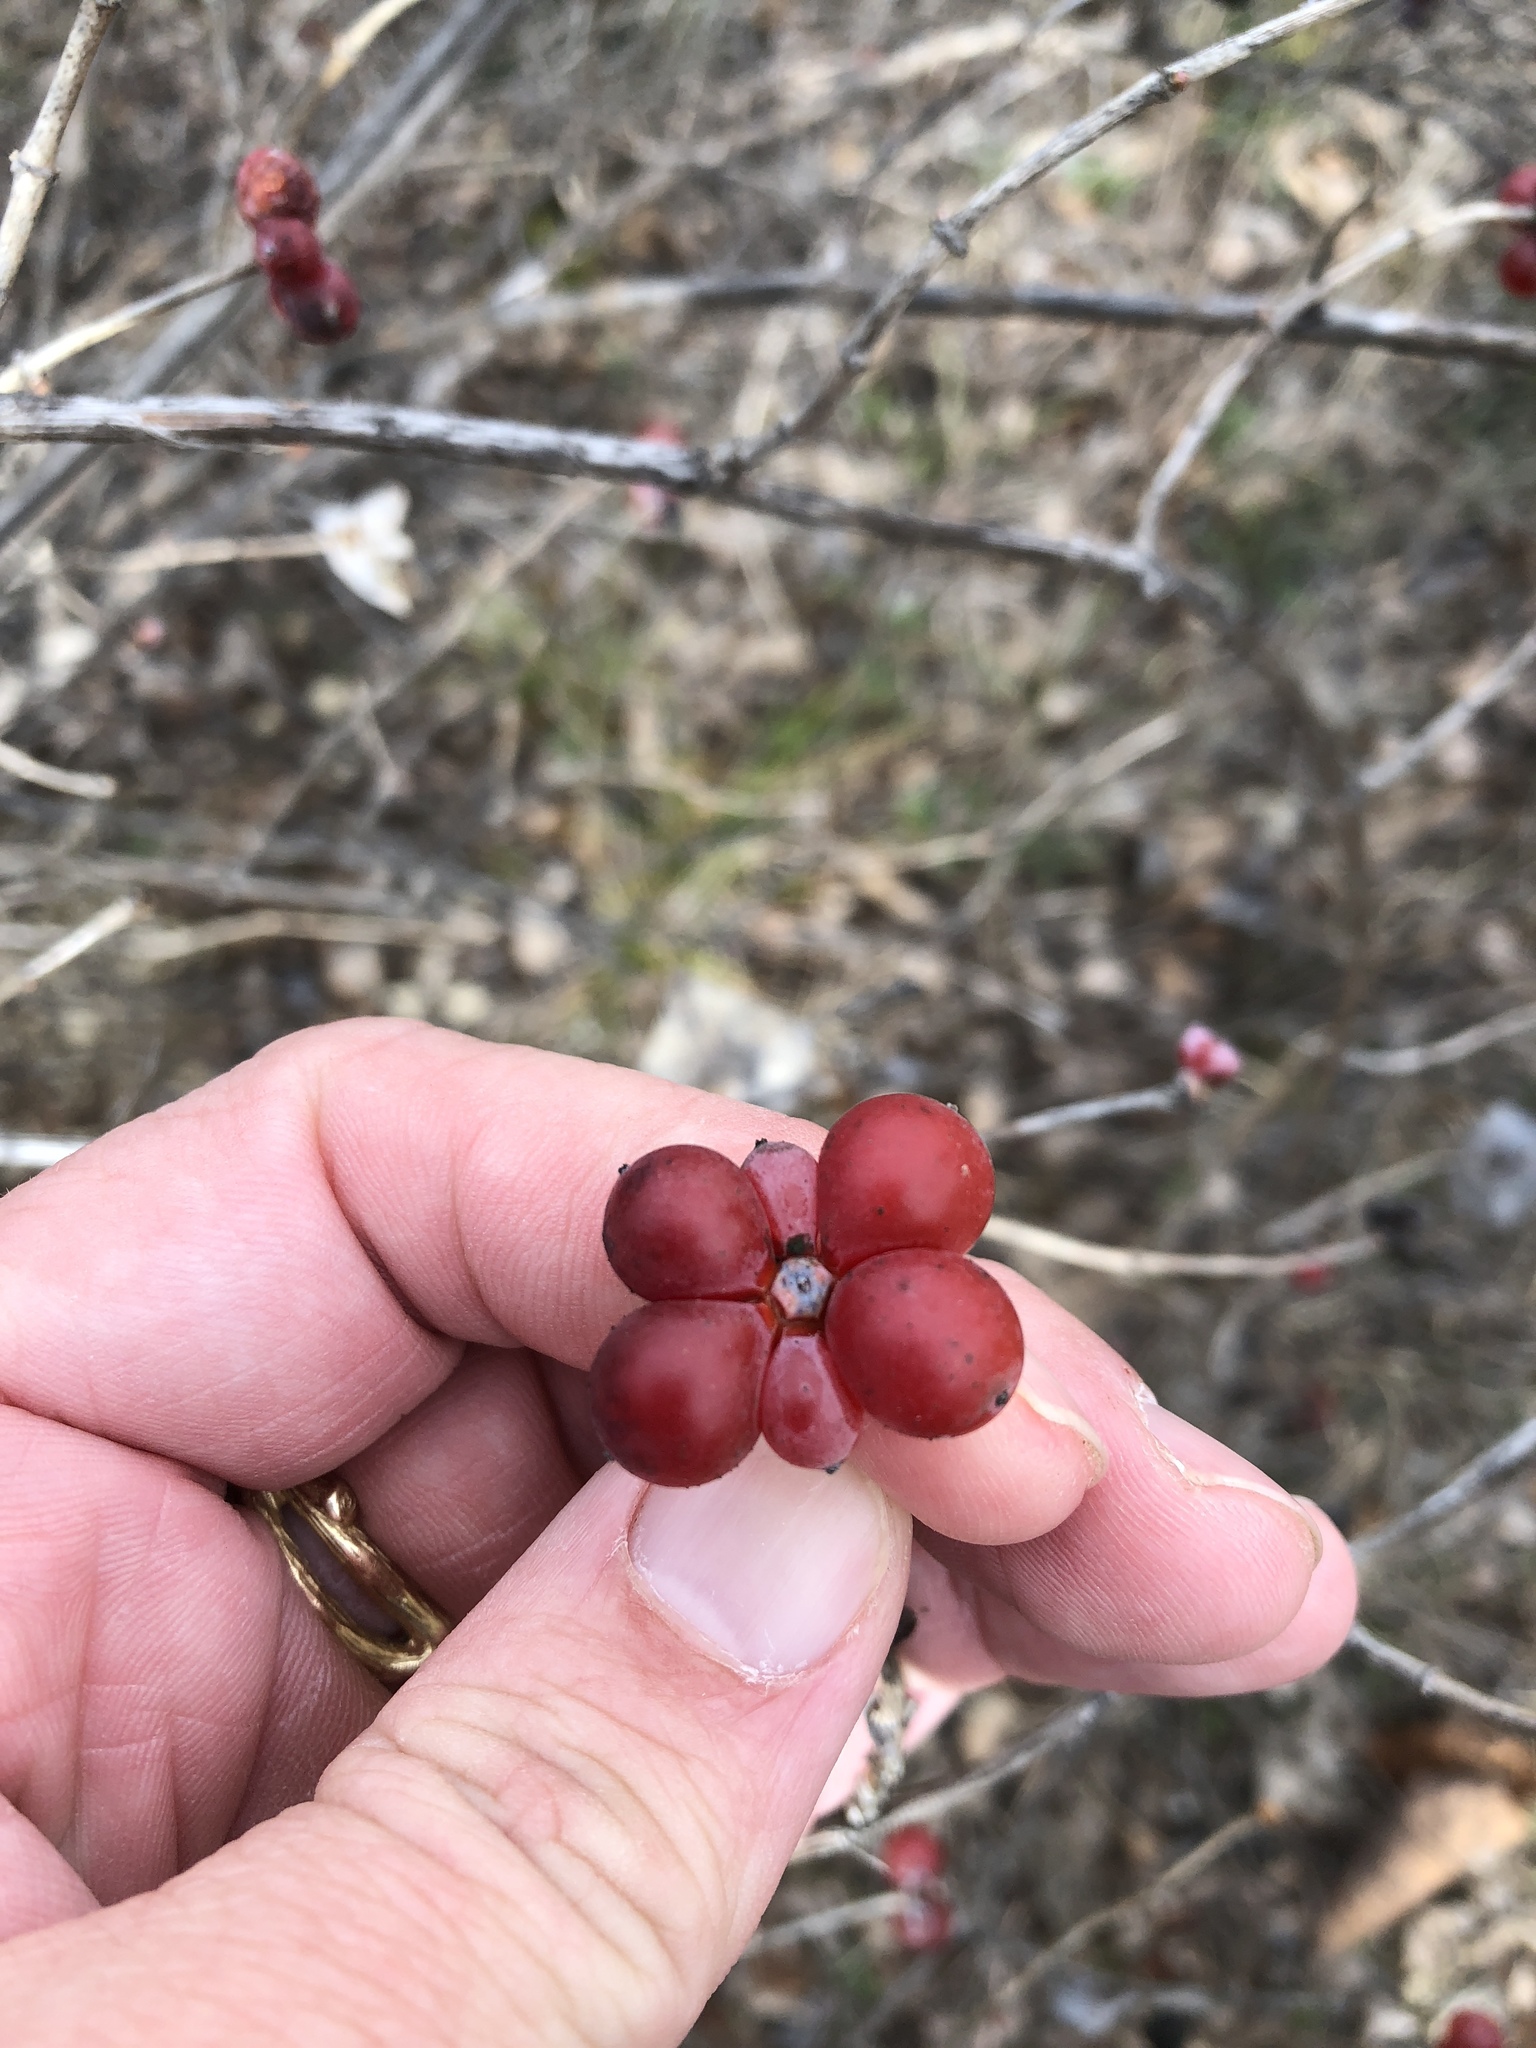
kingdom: Plantae
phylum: Tracheophyta
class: Magnoliopsida
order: Dipsacales
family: Caprifoliaceae
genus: Lonicera
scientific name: Lonicera albiflora
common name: White honeysuckle
